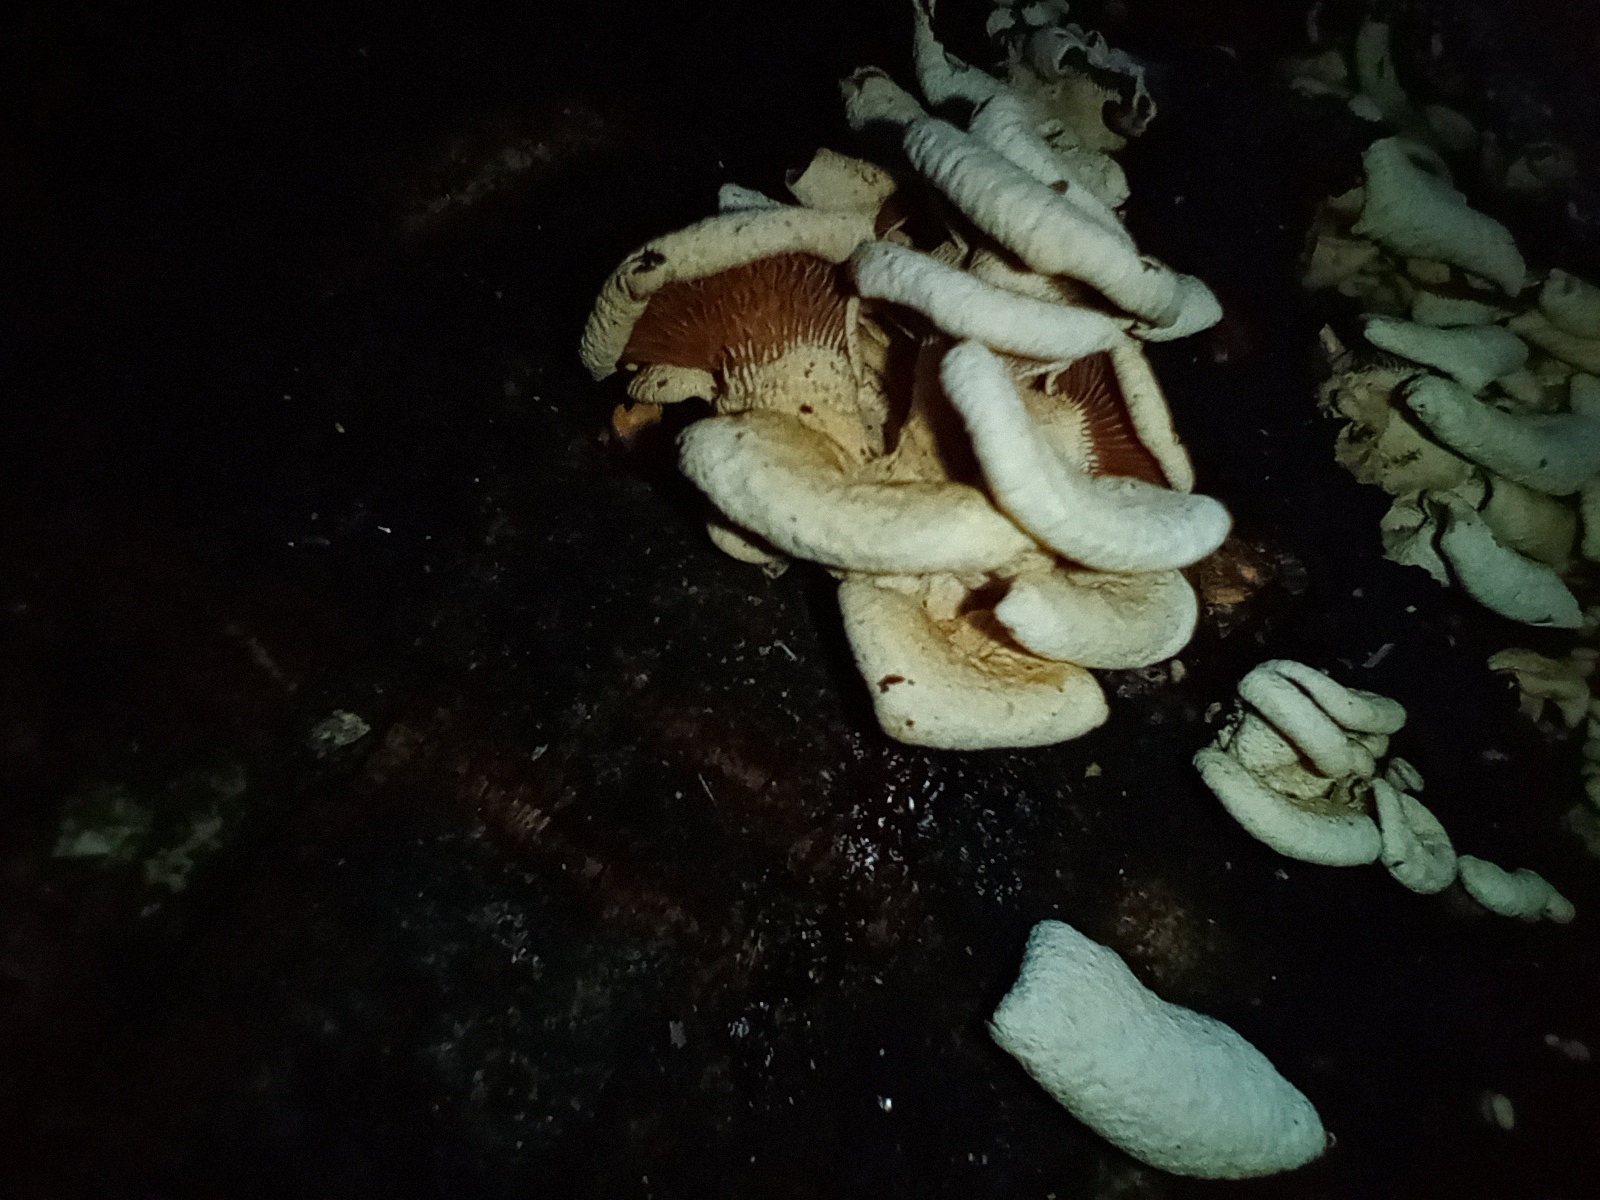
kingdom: Fungi
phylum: Basidiomycota
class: Agaricomycetes
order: Agaricales
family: Mycenaceae
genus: Panellus
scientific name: Panellus stipticus
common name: Bitter oysterling
